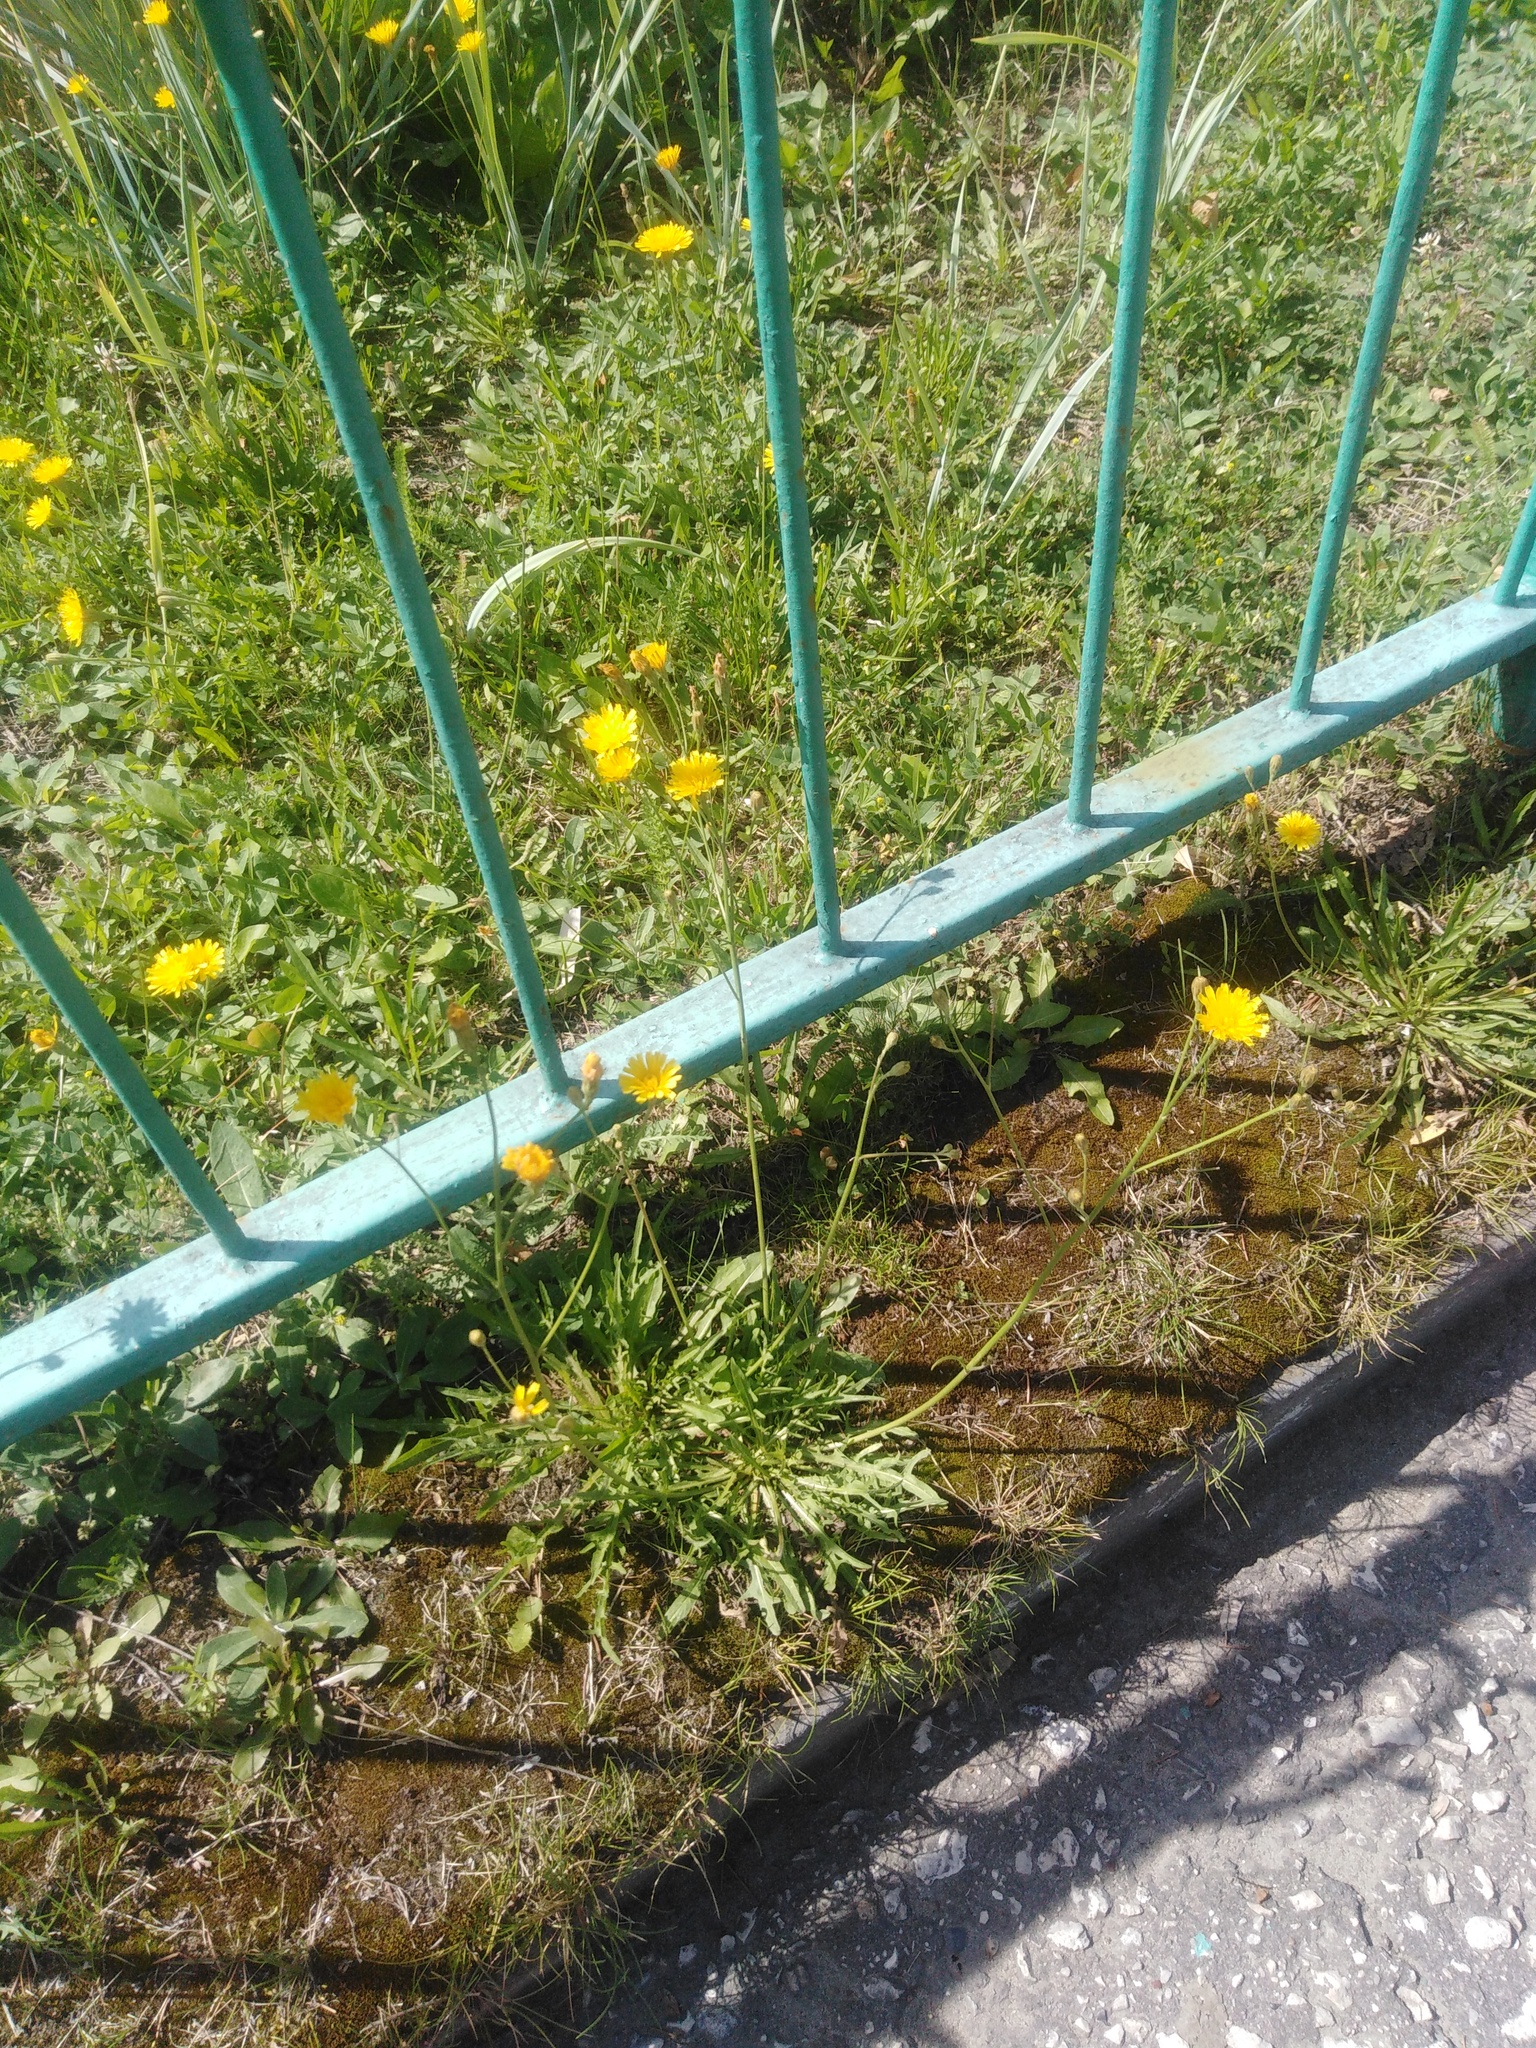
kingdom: Plantae
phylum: Tracheophyta
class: Magnoliopsida
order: Asterales
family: Asteraceae
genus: Scorzoneroides
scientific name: Scorzoneroides autumnalis
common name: Autumn hawkbit
